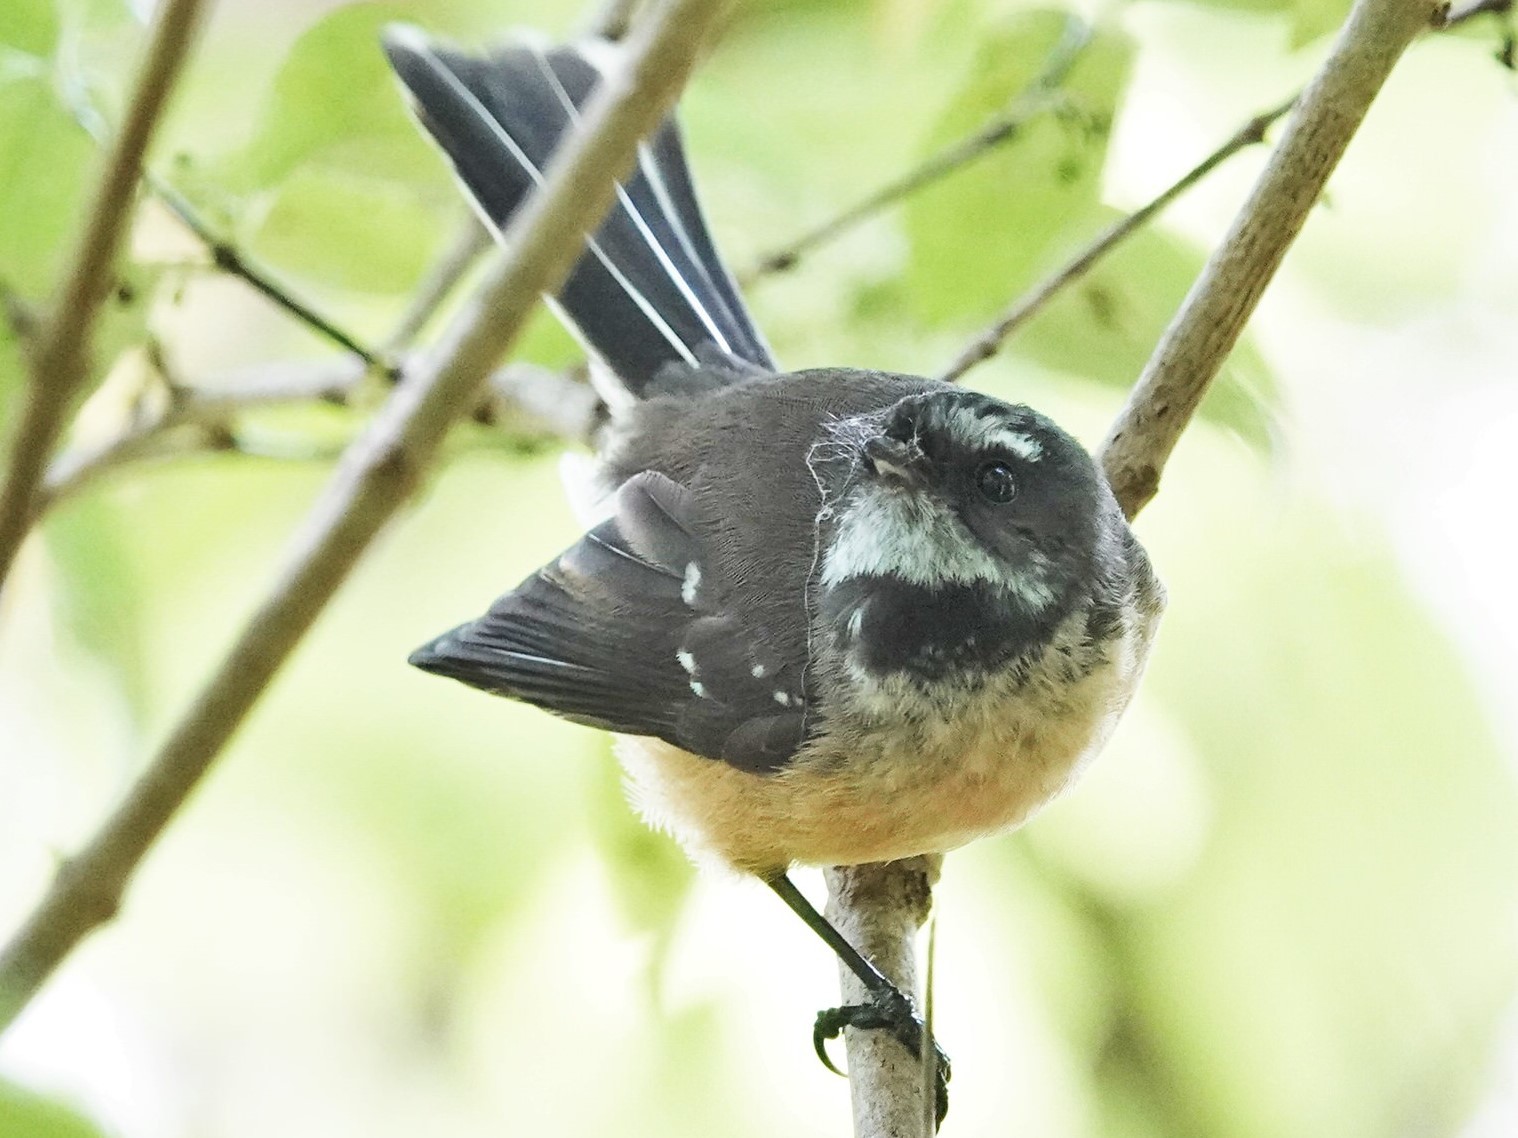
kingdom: Animalia
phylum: Chordata
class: Aves
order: Passeriformes
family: Rhipiduridae
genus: Rhipidura
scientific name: Rhipidura fuliginosa
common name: New zealand fantail
